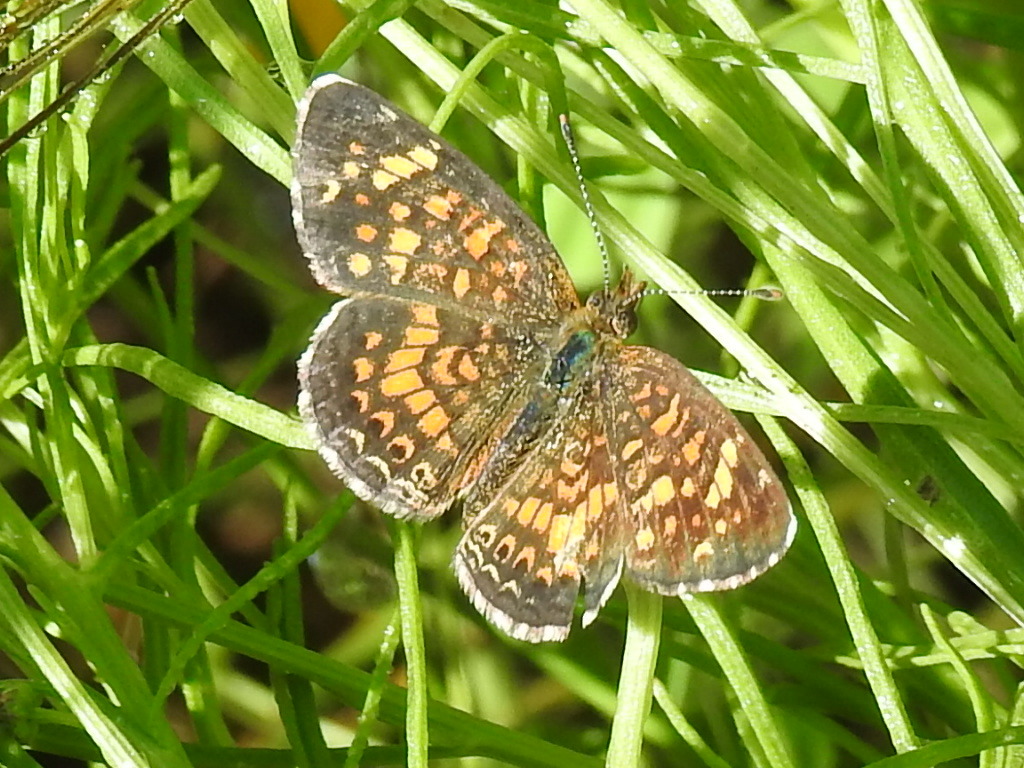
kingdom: Animalia
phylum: Arthropoda
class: Insecta
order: Lepidoptera
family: Nymphalidae
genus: Phyciodes
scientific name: Phyciodes vesta
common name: Vesta crescent
